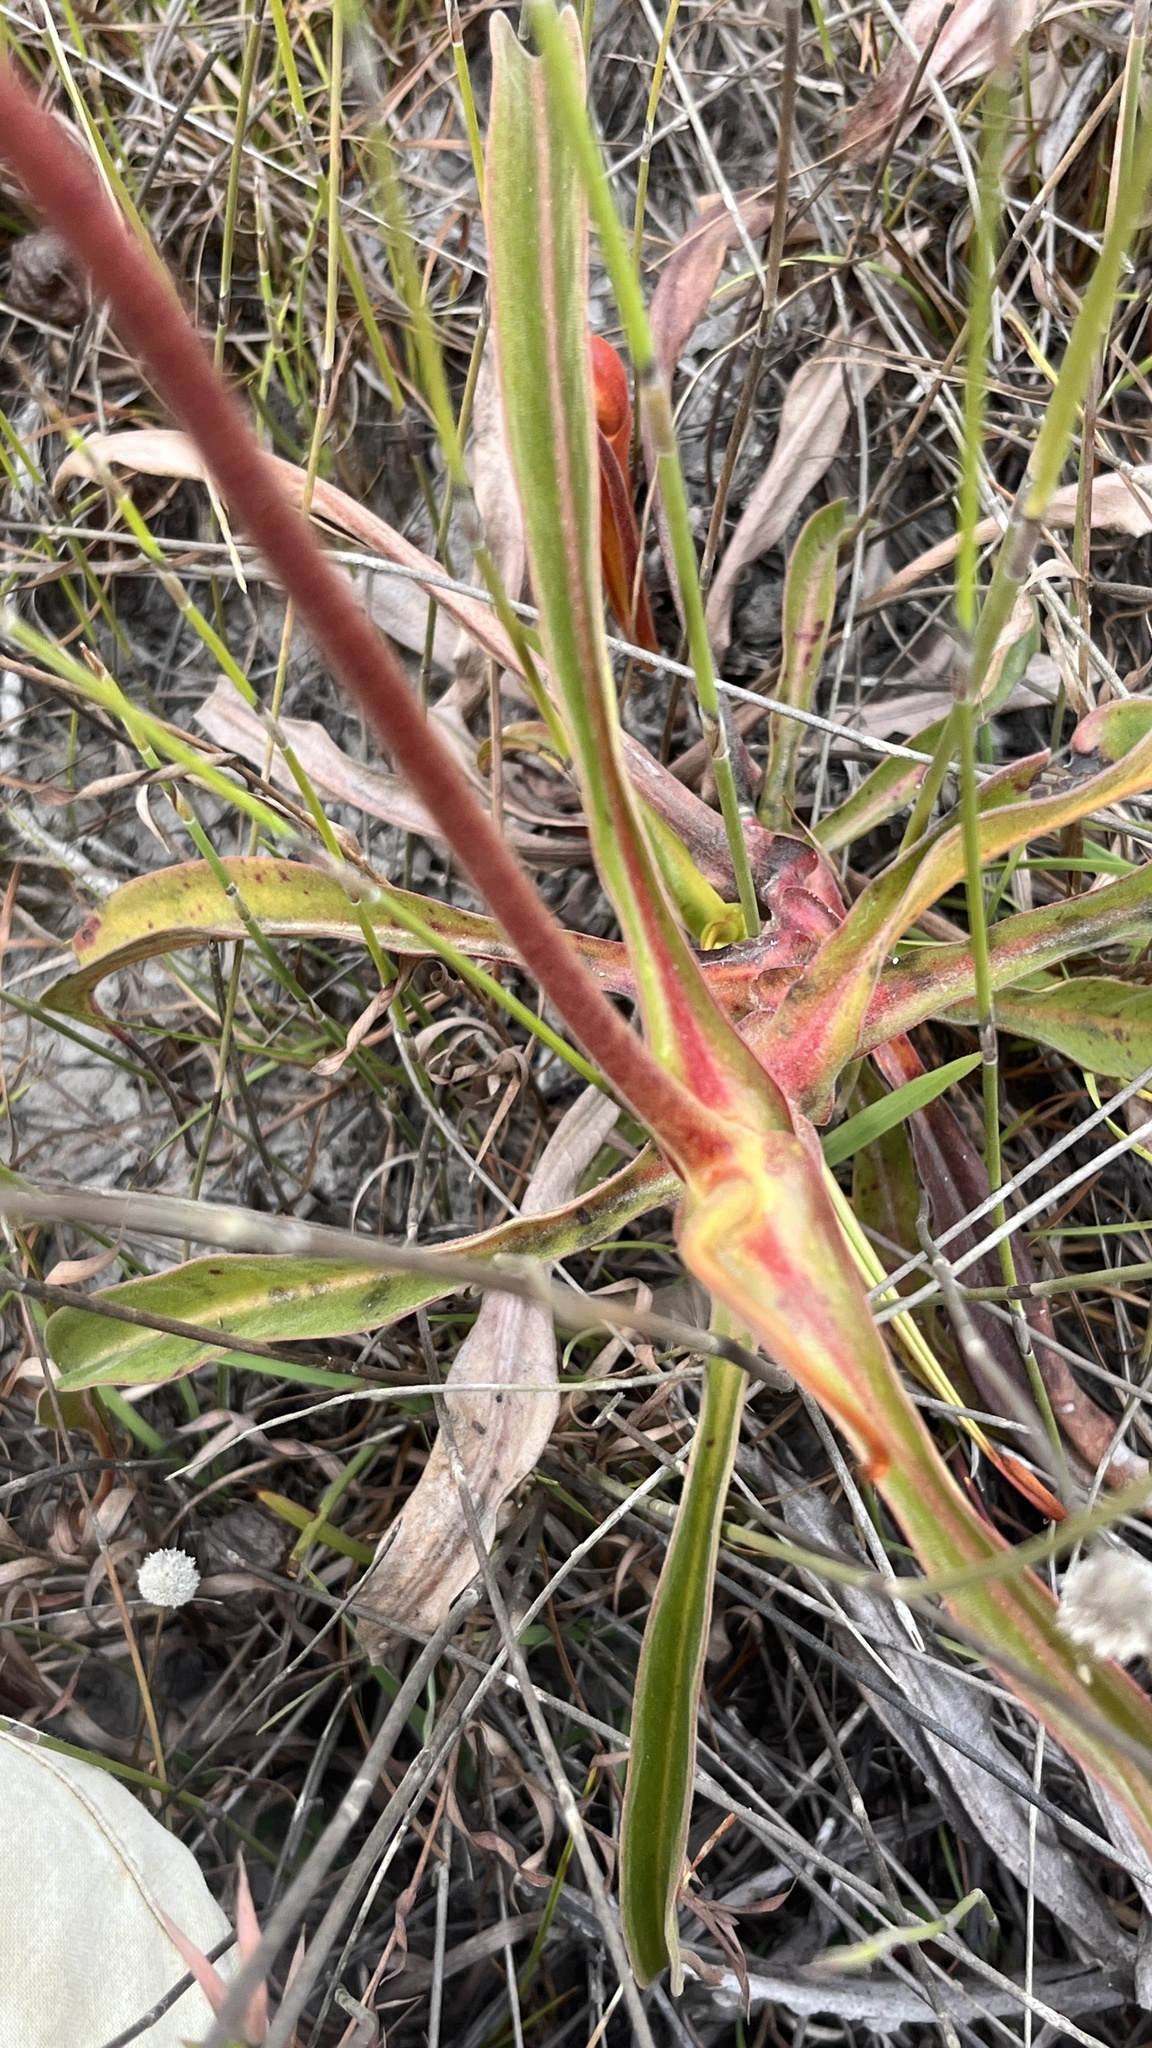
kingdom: Plantae
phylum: Tracheophyta
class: Magnoliopsida
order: Caryophyllales
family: Nepenthaceae
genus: Nepenthes
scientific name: Nepenthes bokorensis
